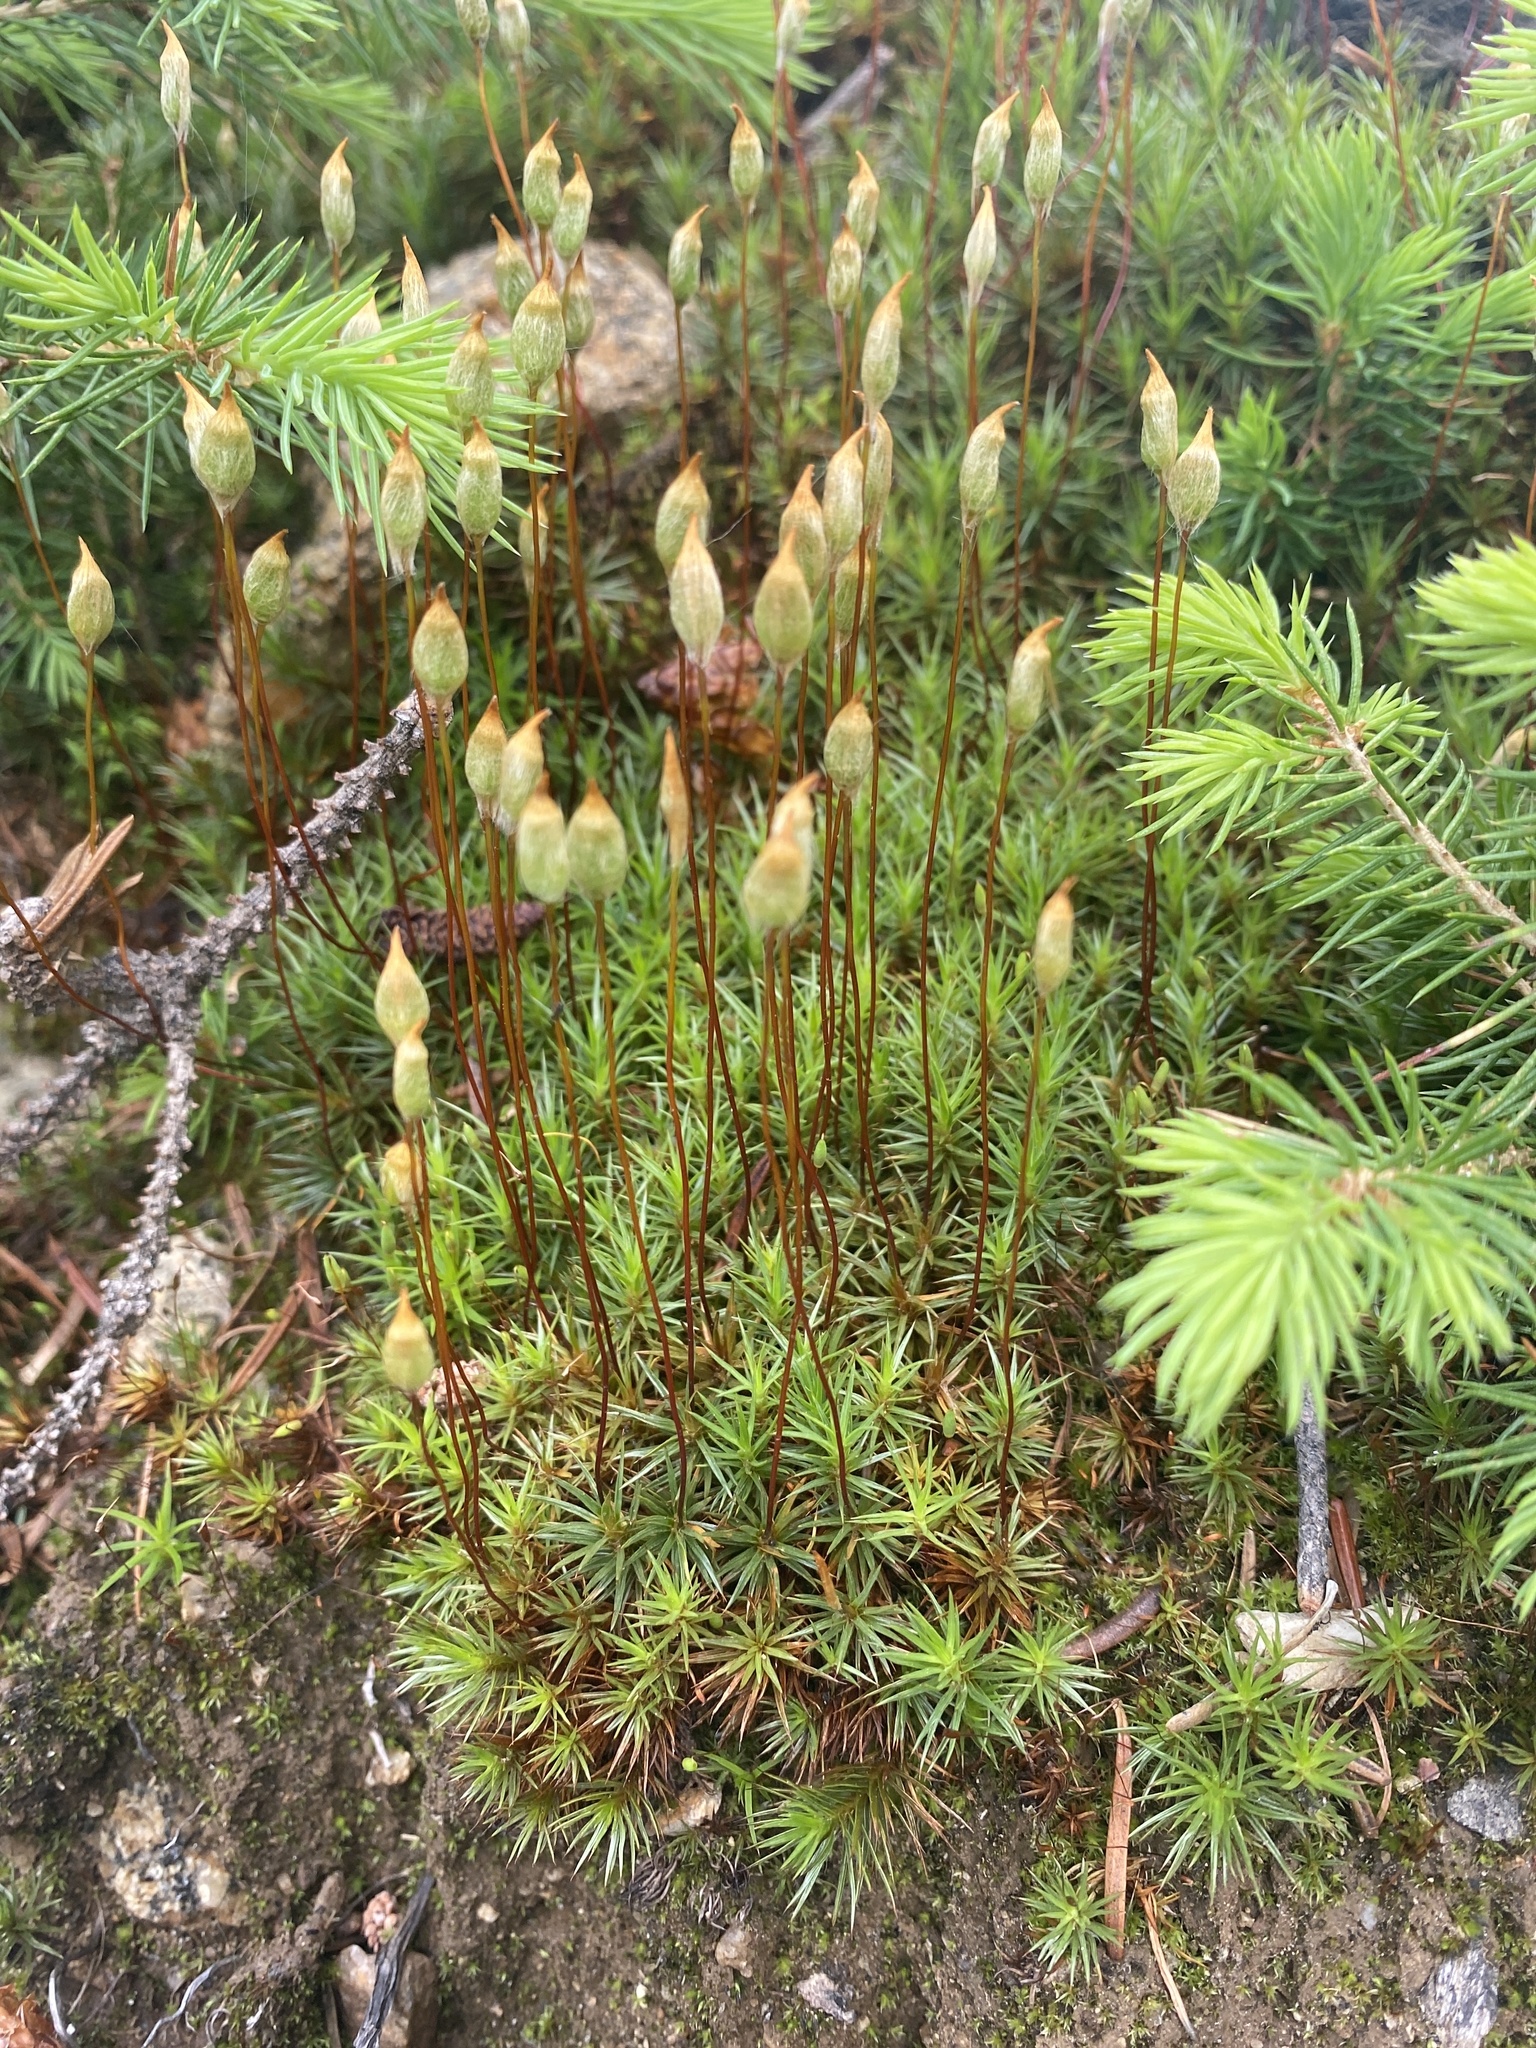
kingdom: Plantae
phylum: Bryophyta
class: Polytrichopsida
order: Polytrichales
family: Polytrichaceae
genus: Polytrichum
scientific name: Polytrichum juniperinum
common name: Juniper haircap moss
